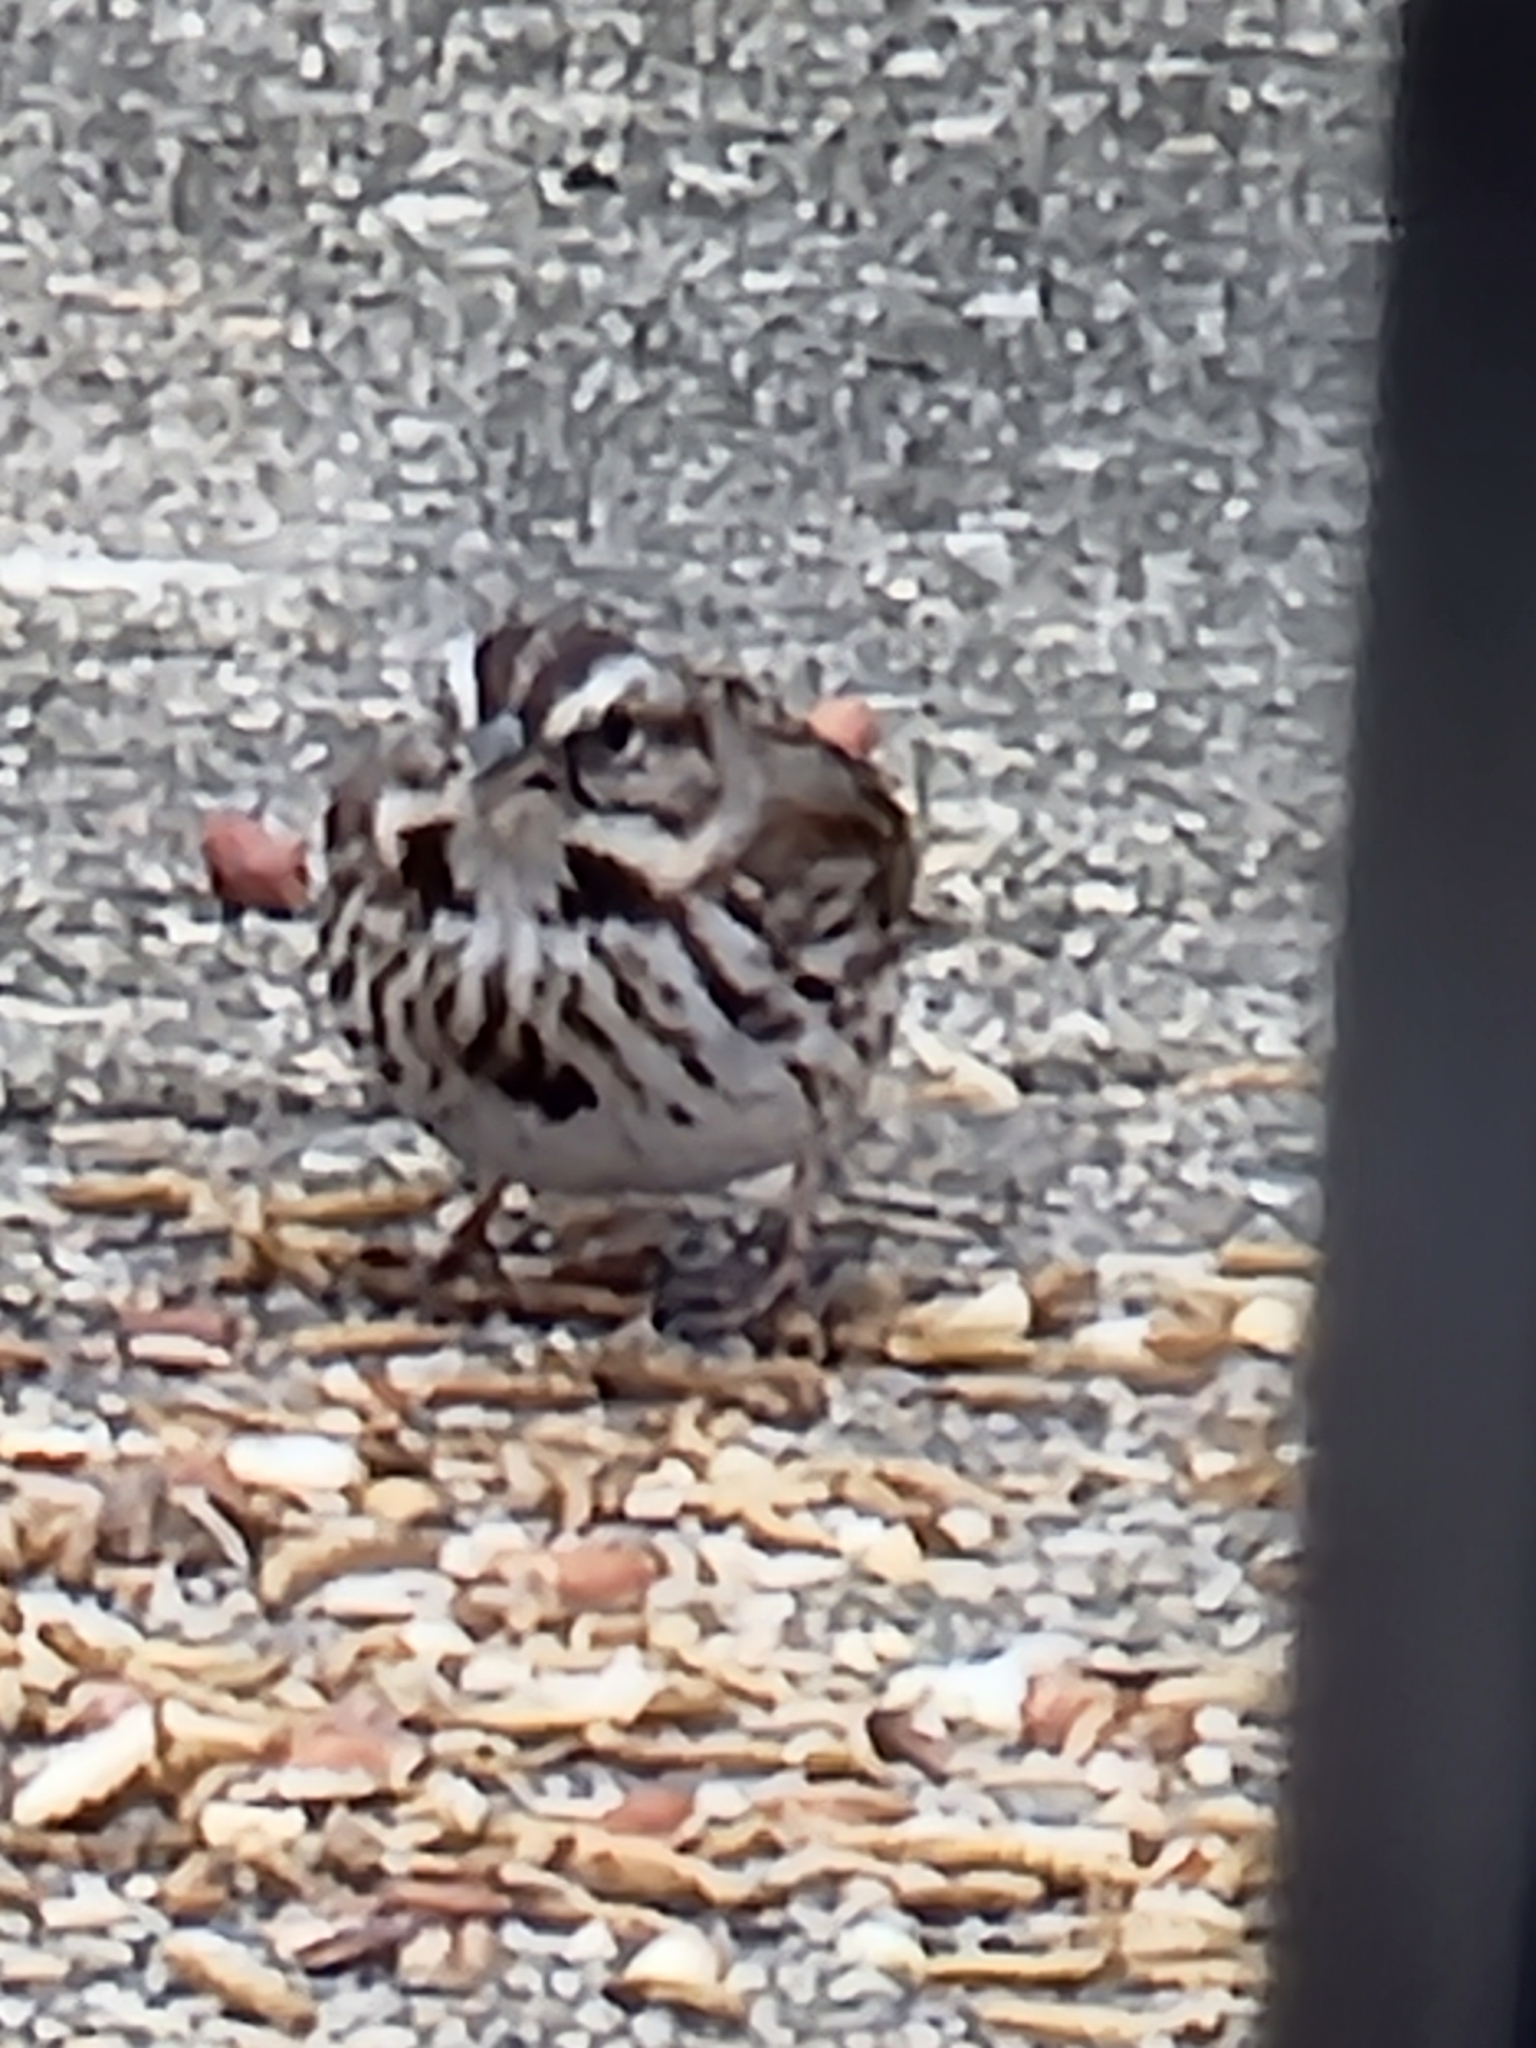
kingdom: Animalia
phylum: Chordata
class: Aves
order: Passeriformes
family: Passerellidae
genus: Melospiza
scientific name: Melospiza melodia
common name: Song sparrow
